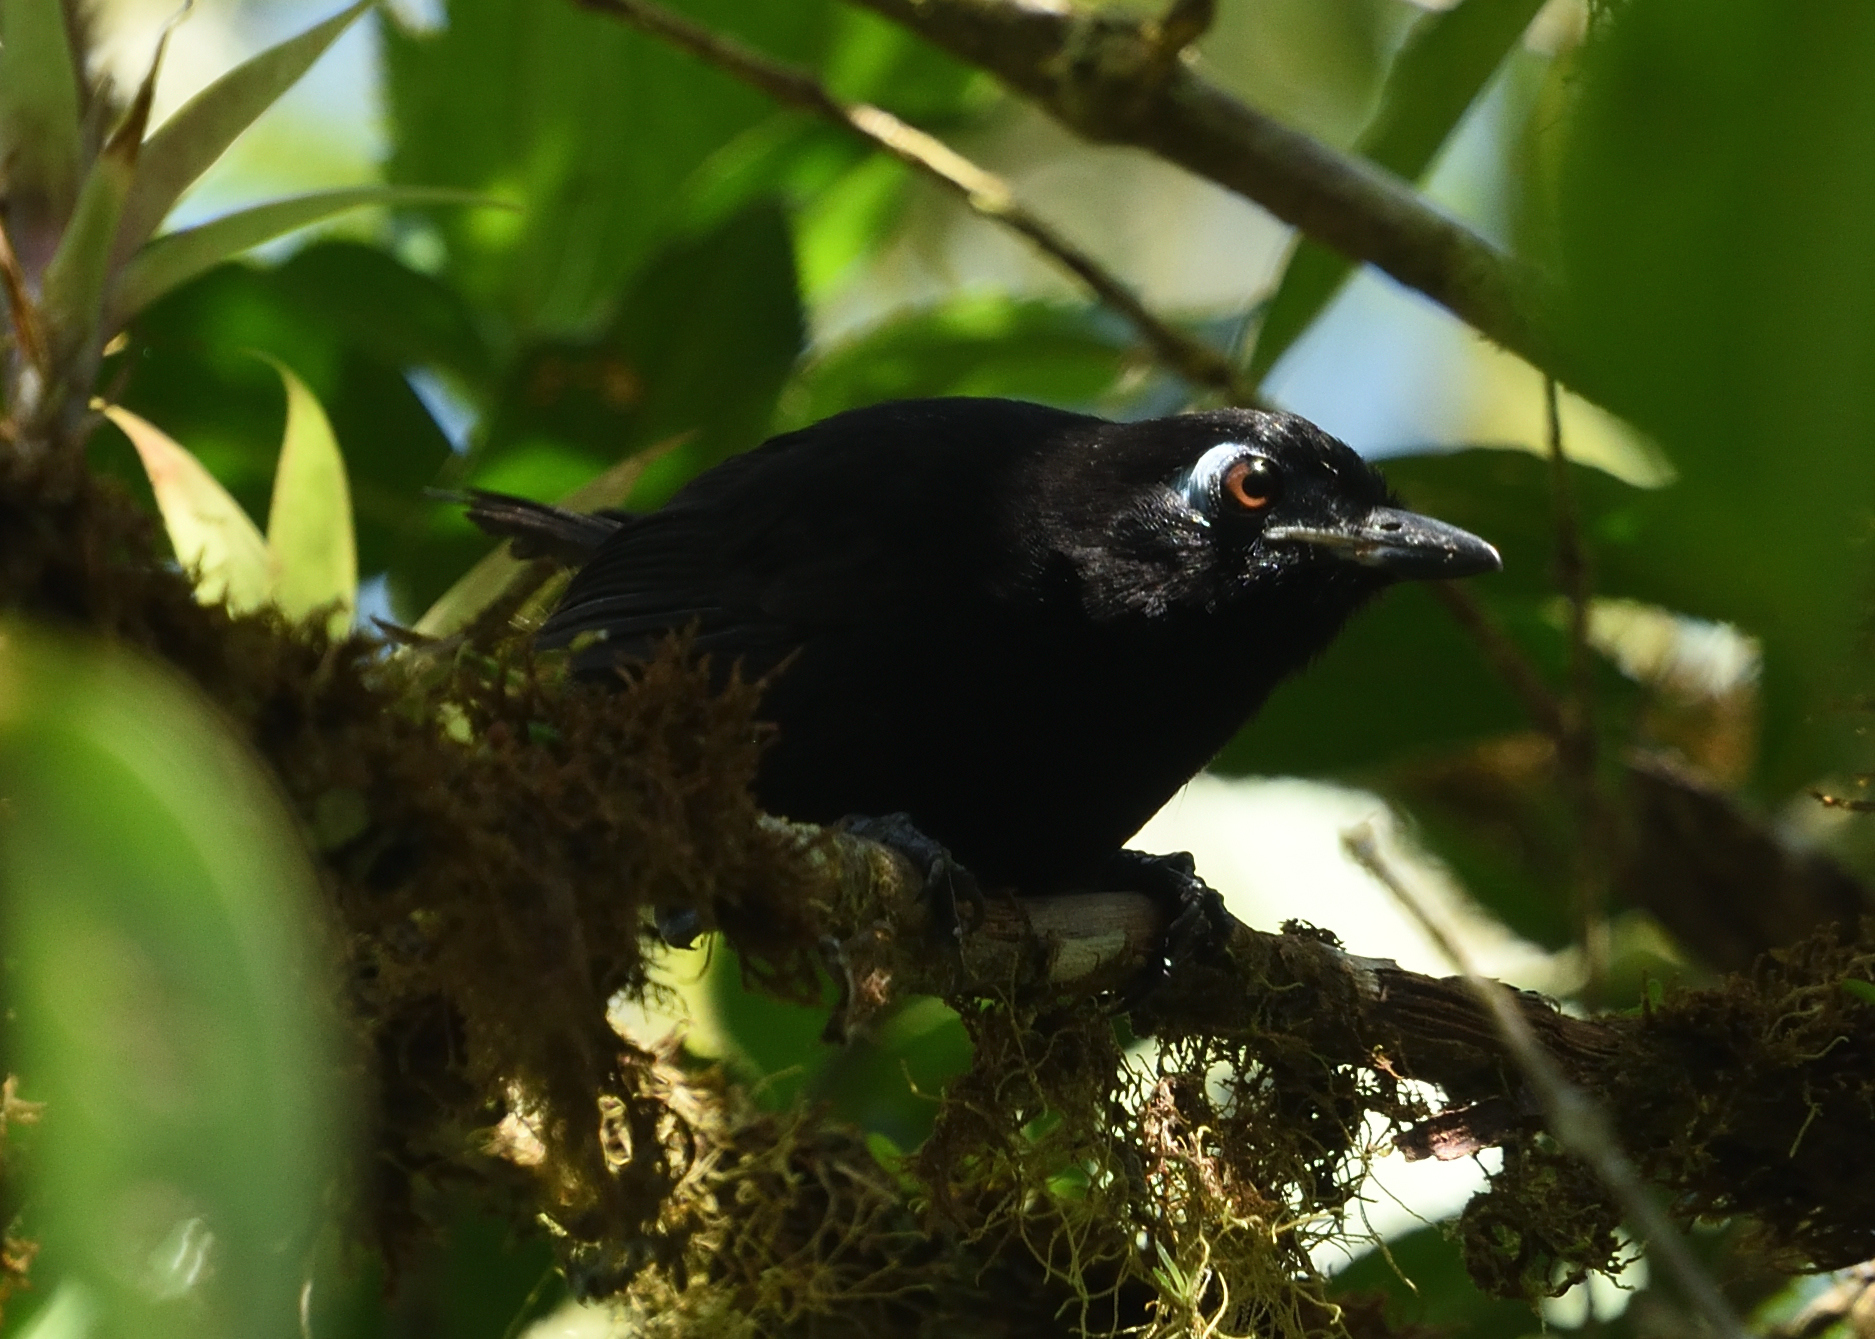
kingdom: Animalia
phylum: Chordata
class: Aves
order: Passeriformes
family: Thamnophilidae
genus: Hafferia
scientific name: Hafferia zeledoni
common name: Zeledon's antbird
